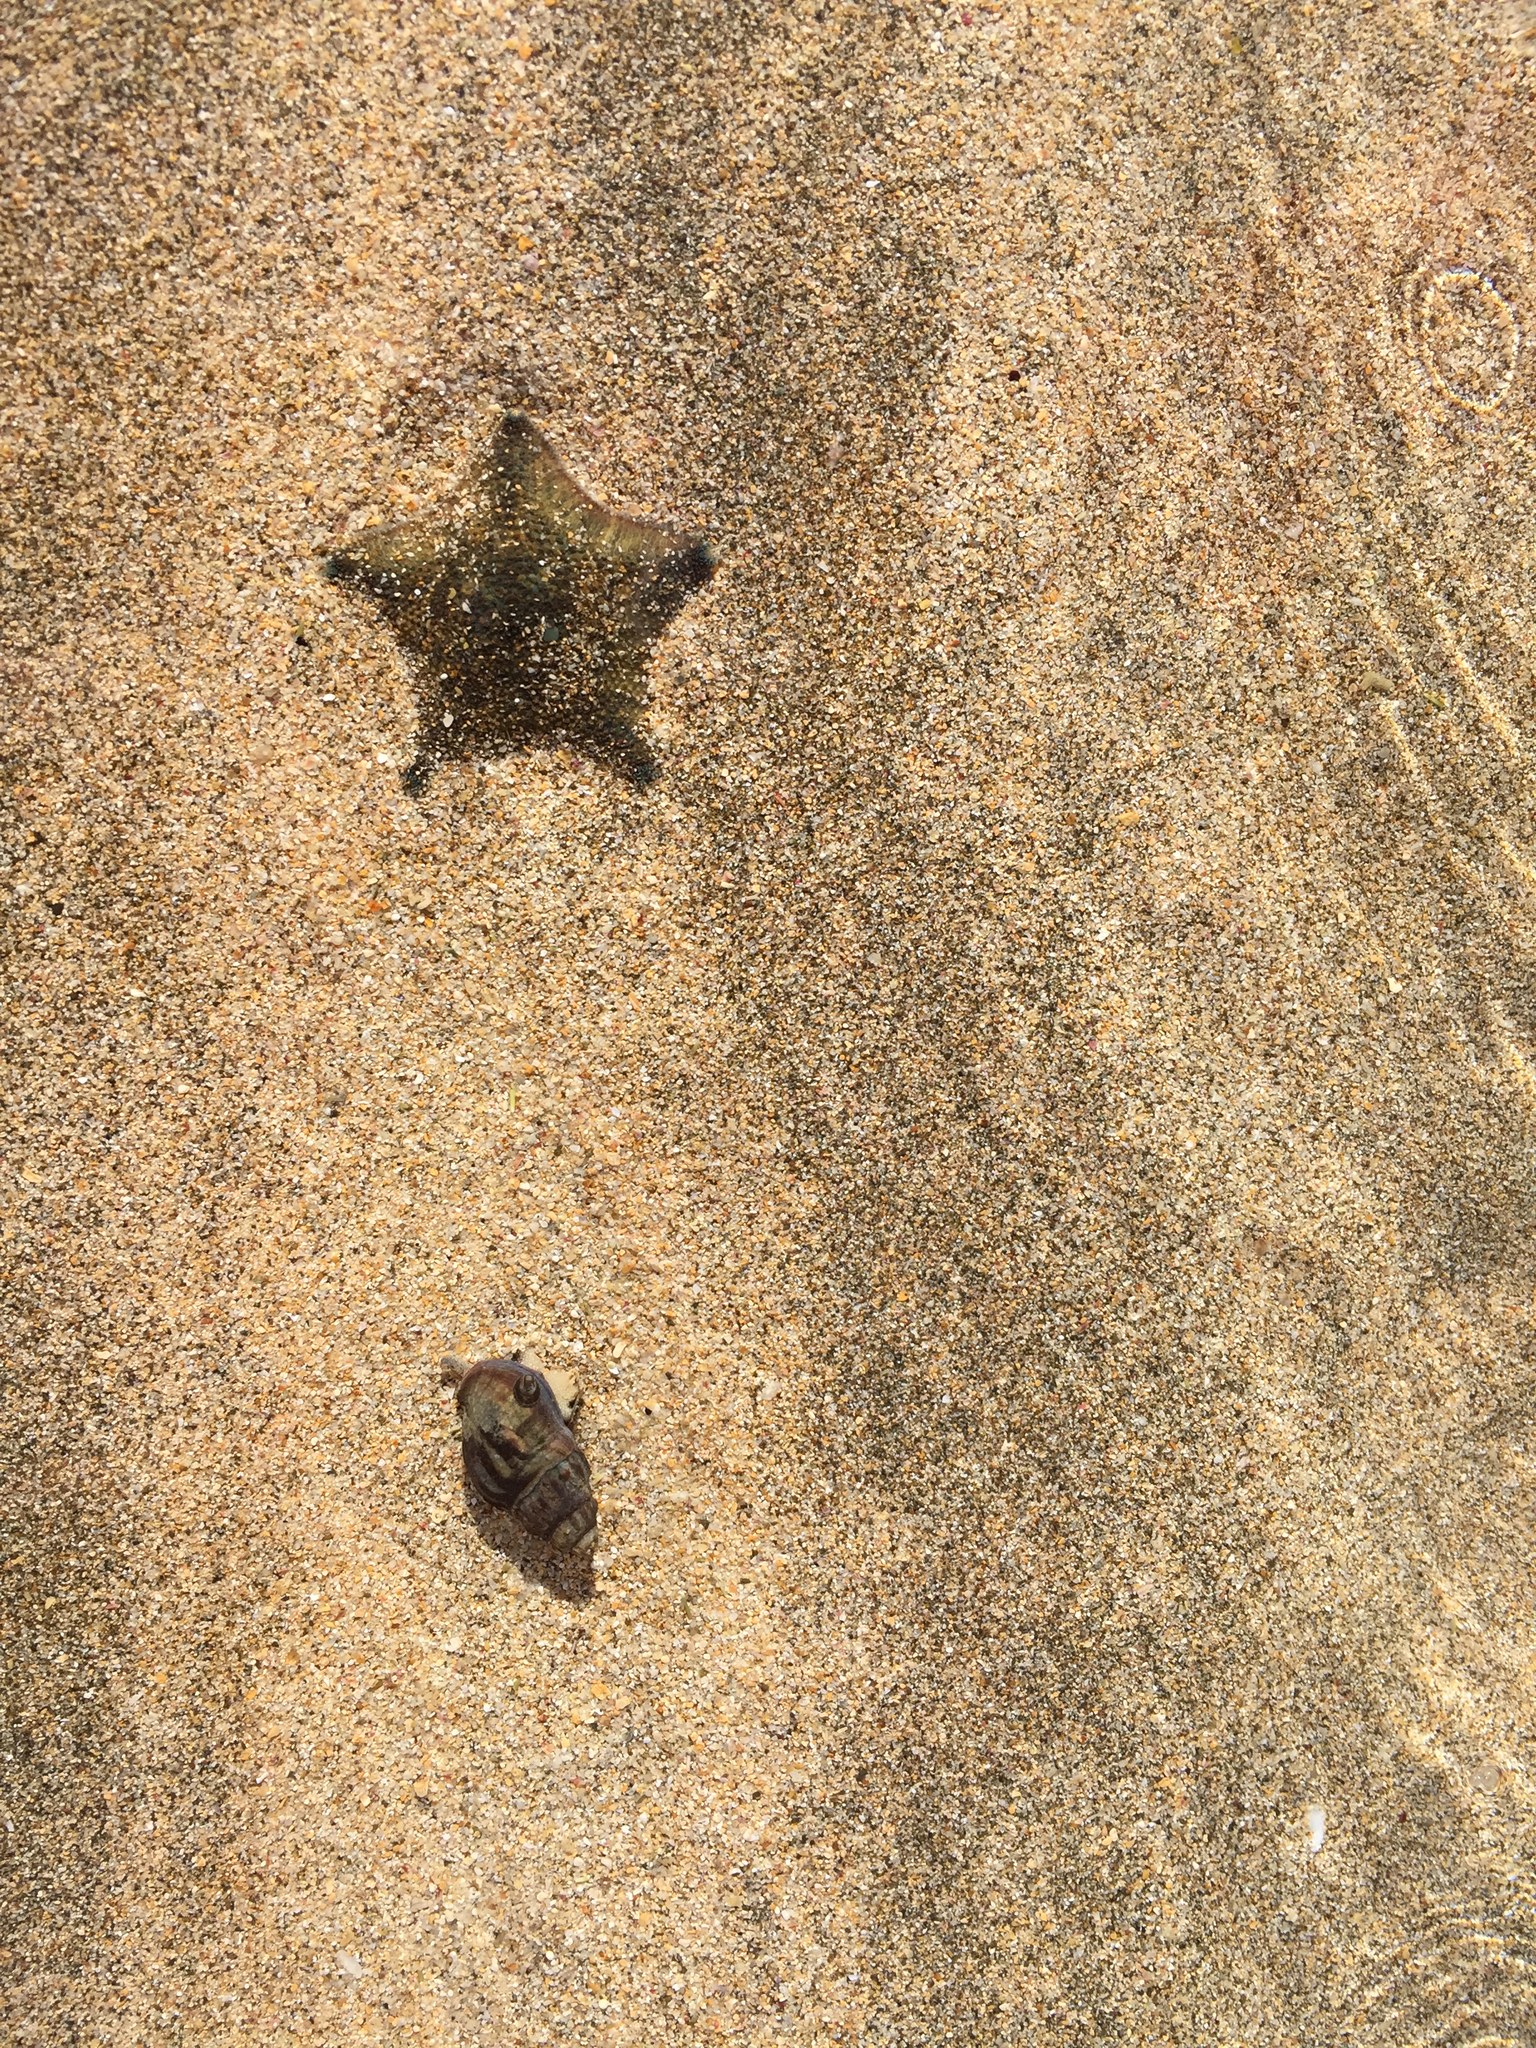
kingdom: Animalia
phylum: Mollusca
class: Gastropoda
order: Neogastropoda
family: Cominellidae
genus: Cominella
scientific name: Cominella glandiformis
